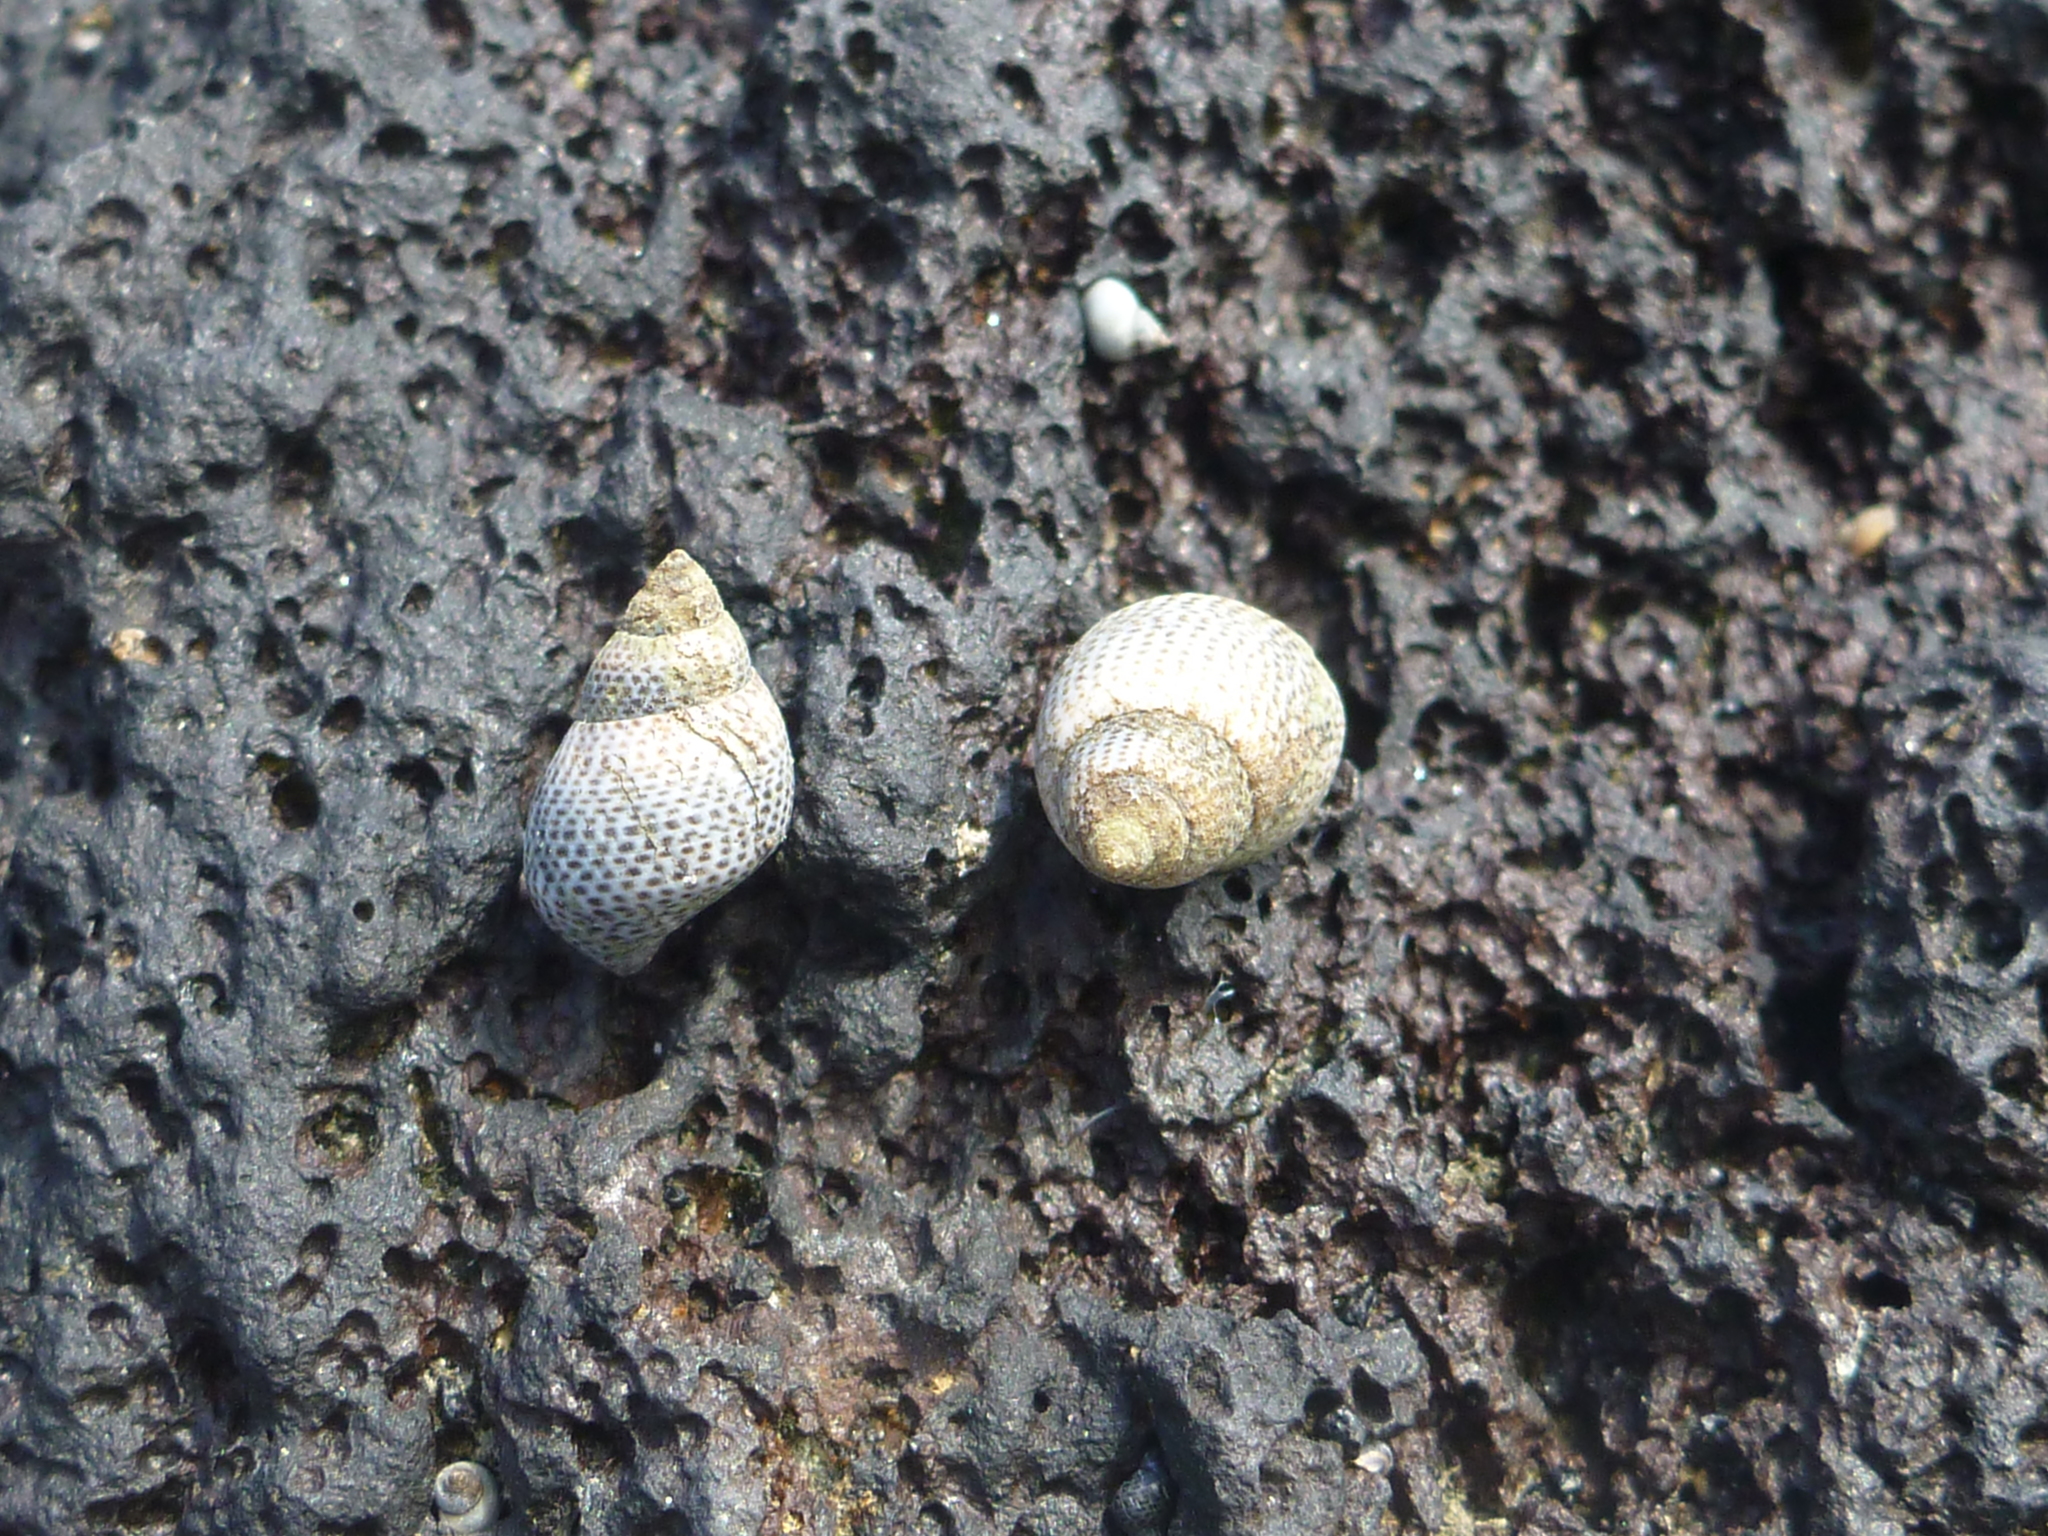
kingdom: Animalia
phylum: Mollusca
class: Gastropoda
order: Littorinimorpha
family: Littorinidae
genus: Littoraria
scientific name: Littoraria pintado
